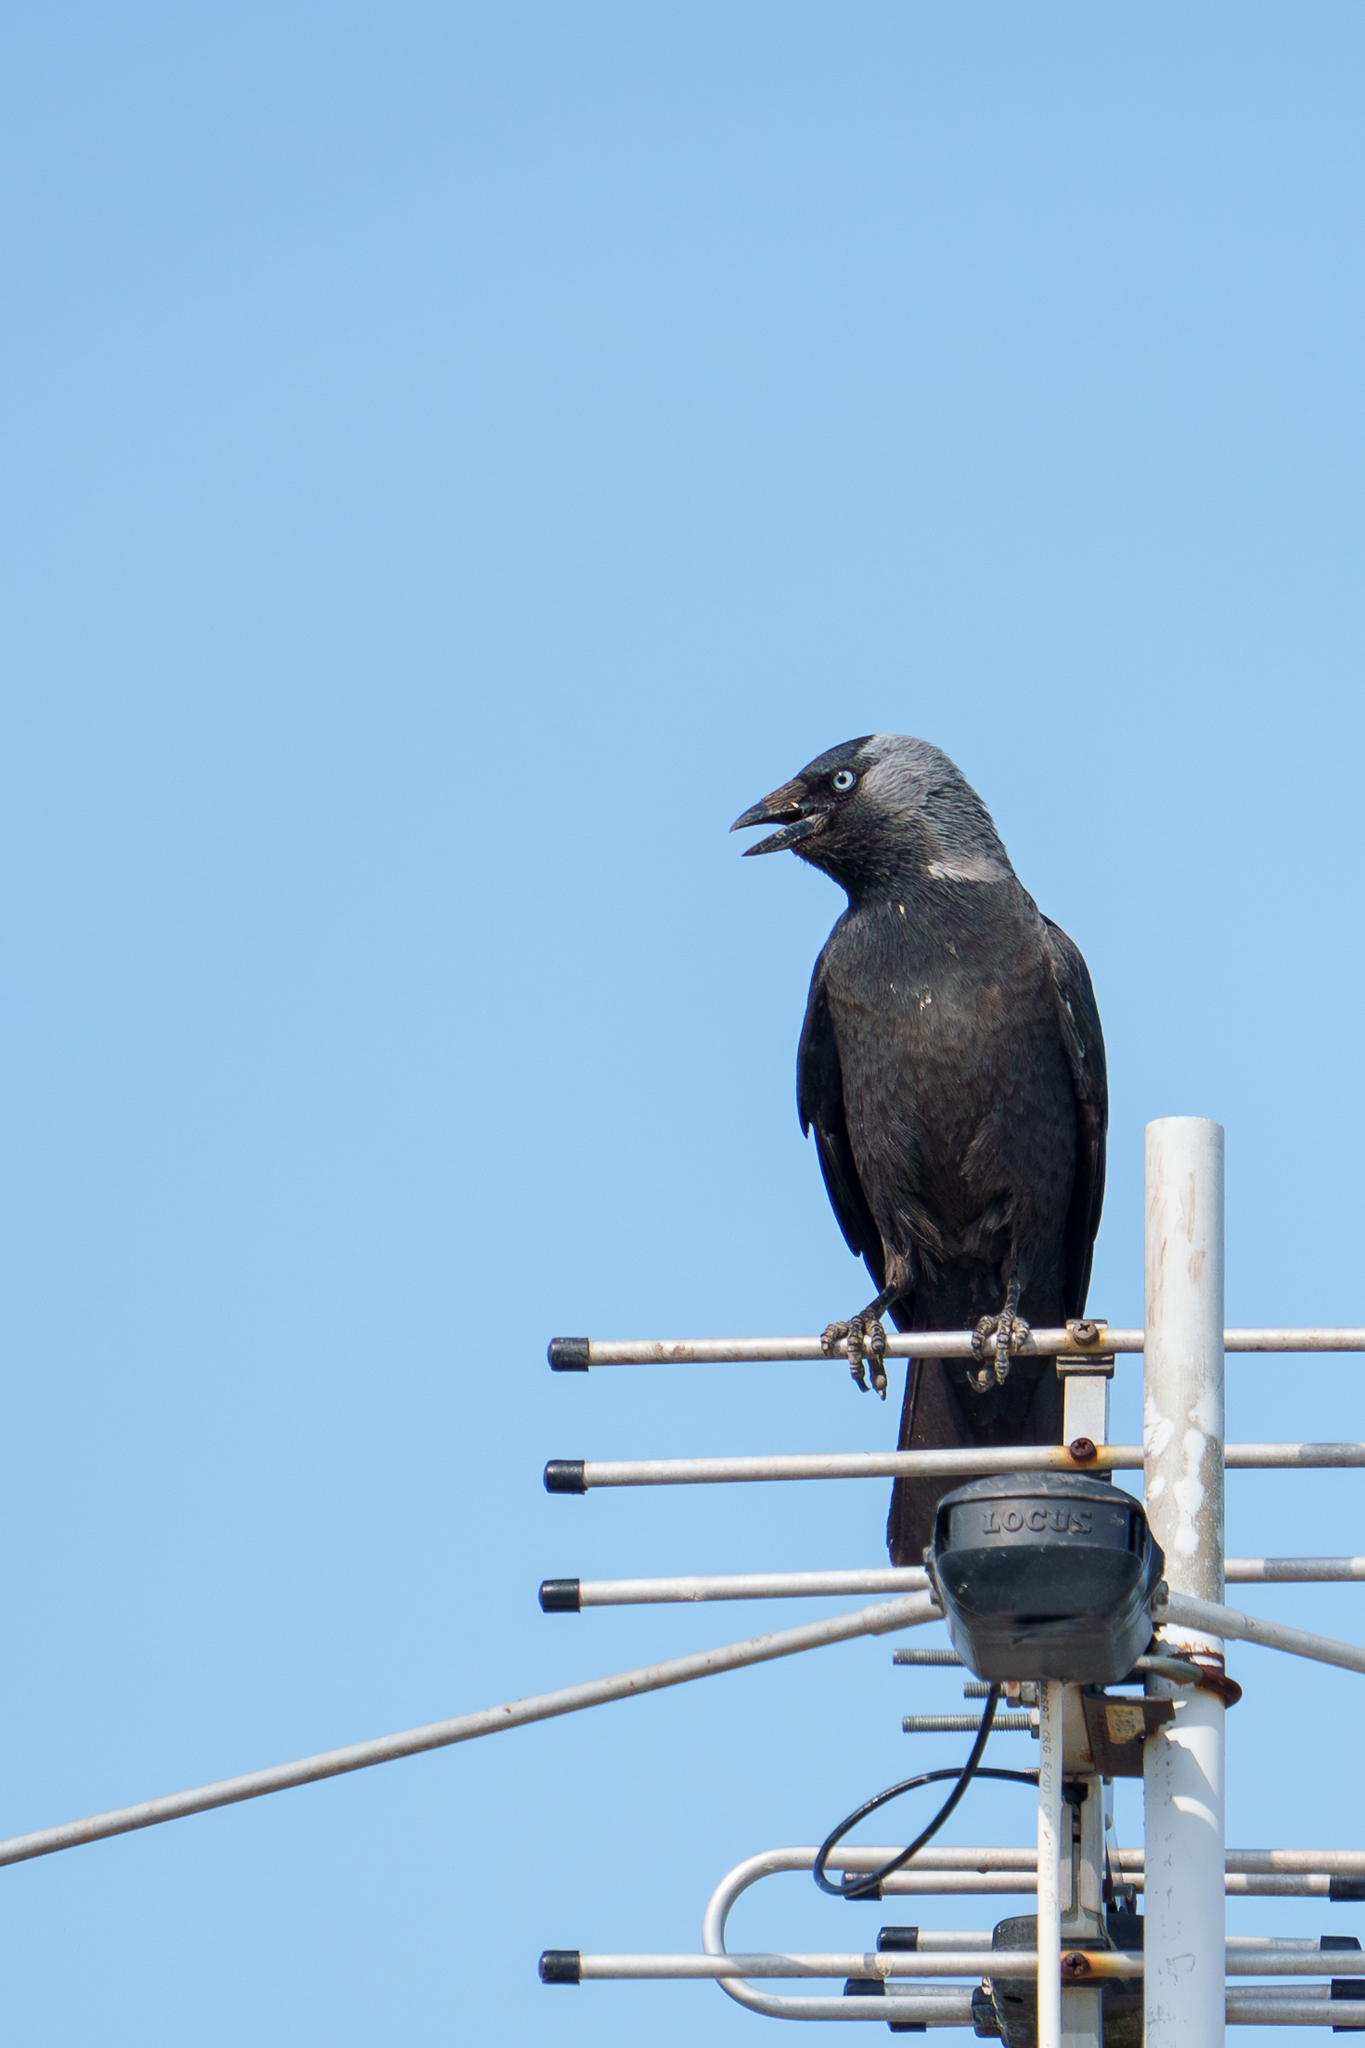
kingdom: Animalia
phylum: Chordata
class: Aves
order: Passeriformes
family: Corvidae
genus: Coloeus
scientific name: Coloeus monedula
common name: Western jackdaw
